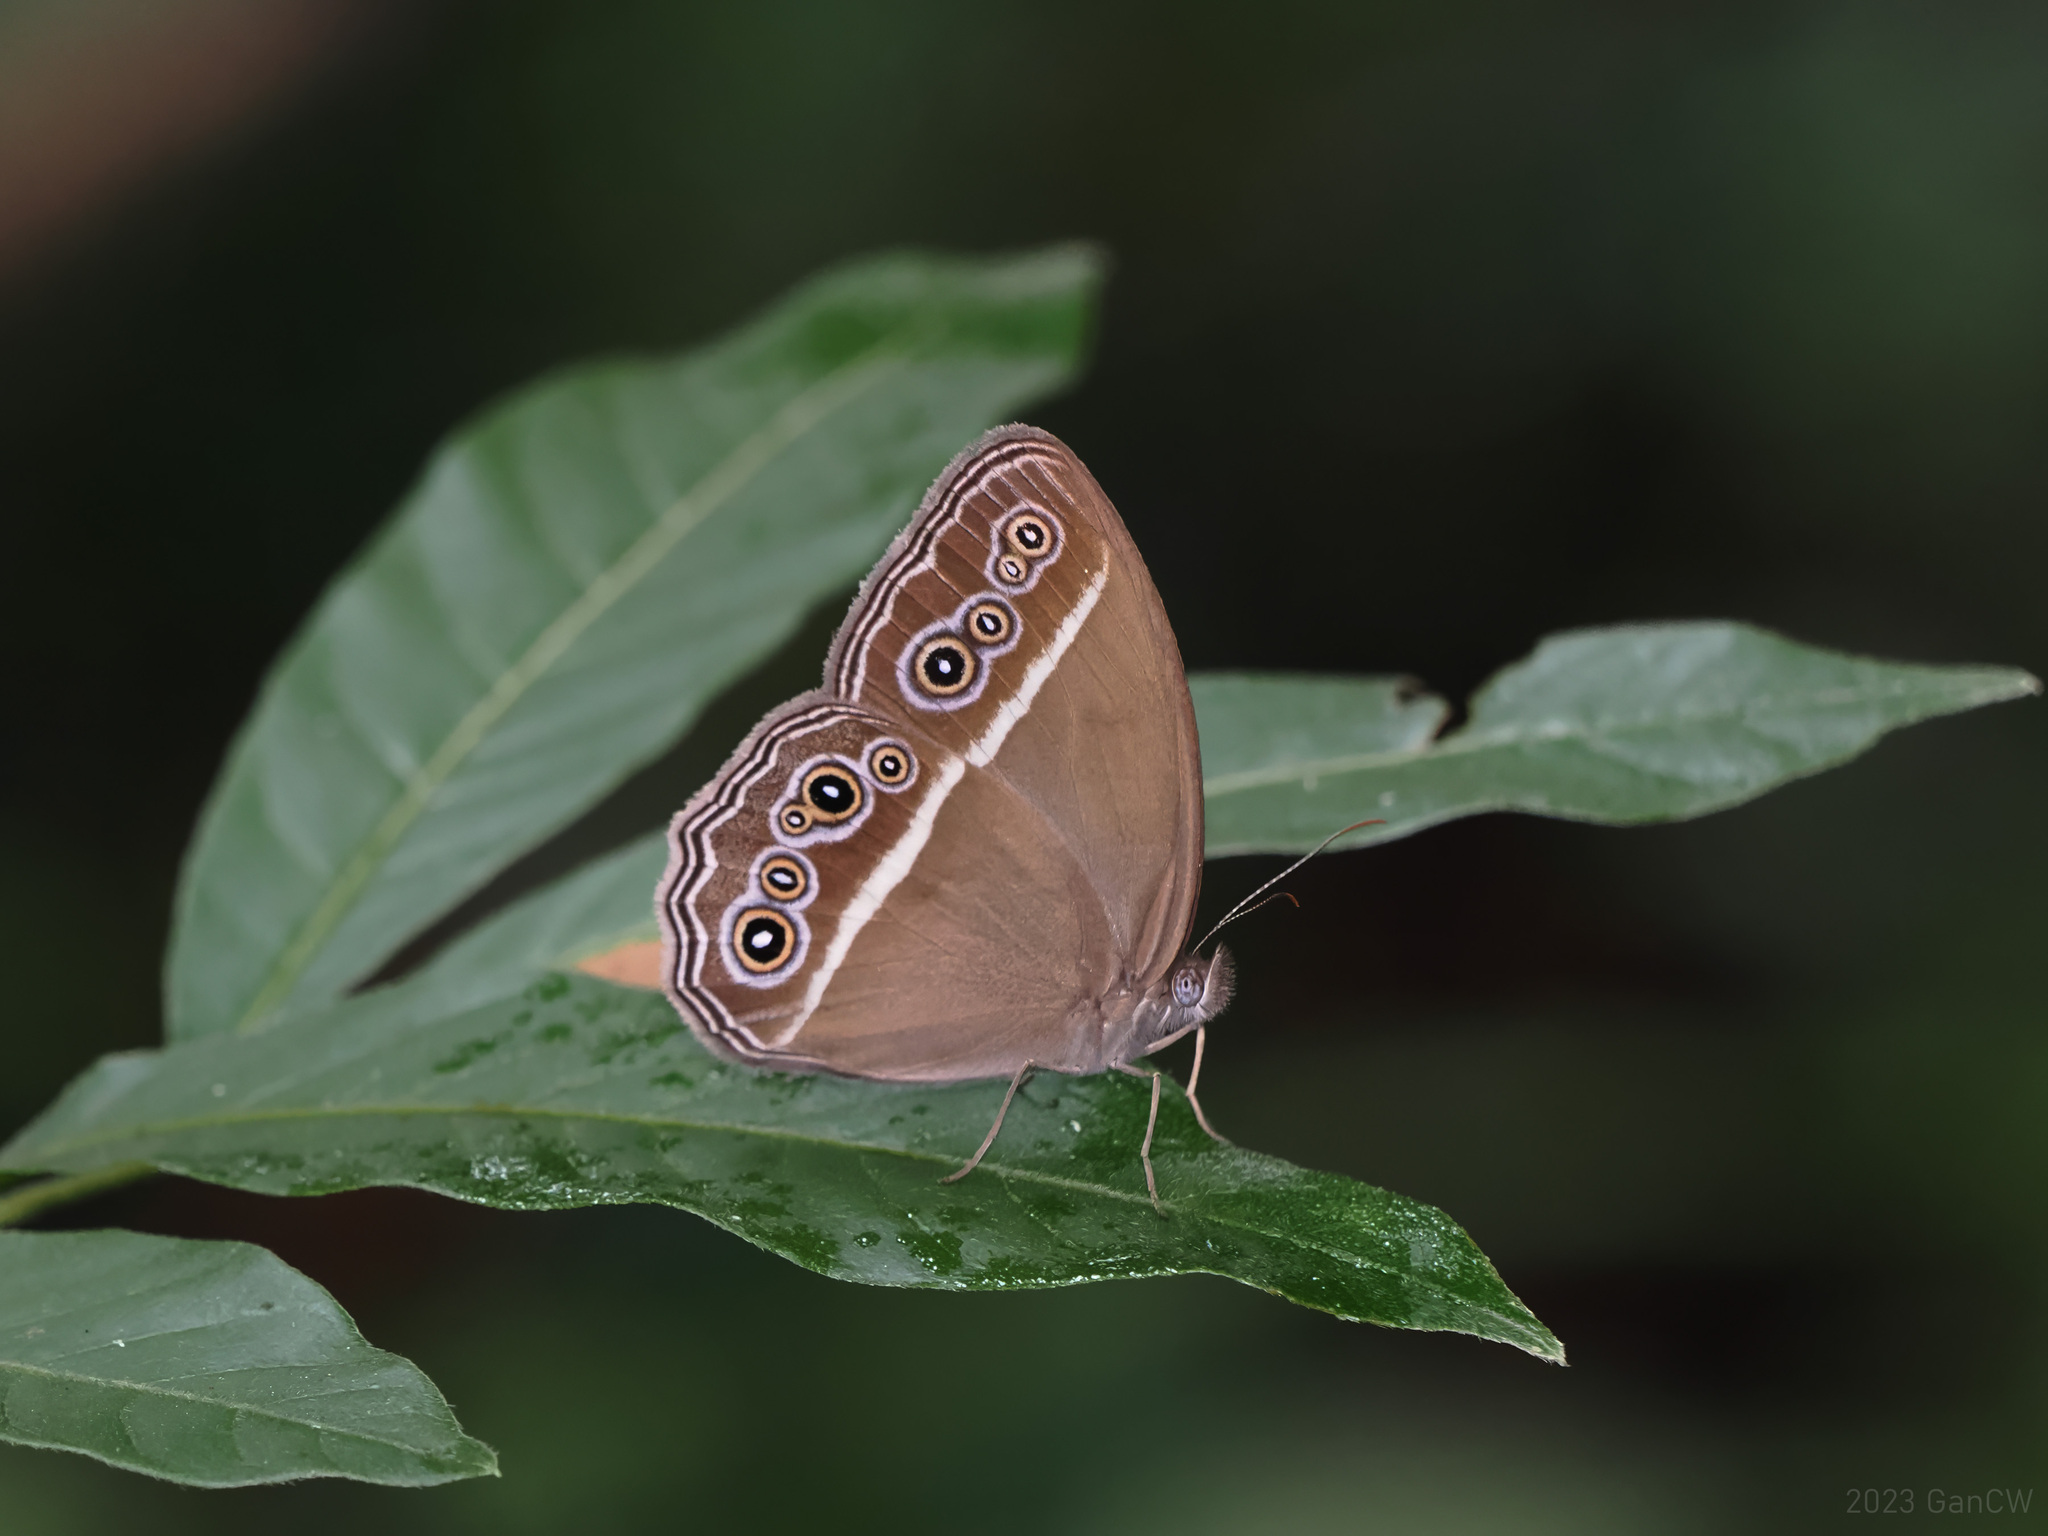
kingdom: Animalia
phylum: Arthropoda
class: Insecta
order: Lepidoptera
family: Nymphalidae
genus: Orsotriaena
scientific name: Orsotriaena jopas
